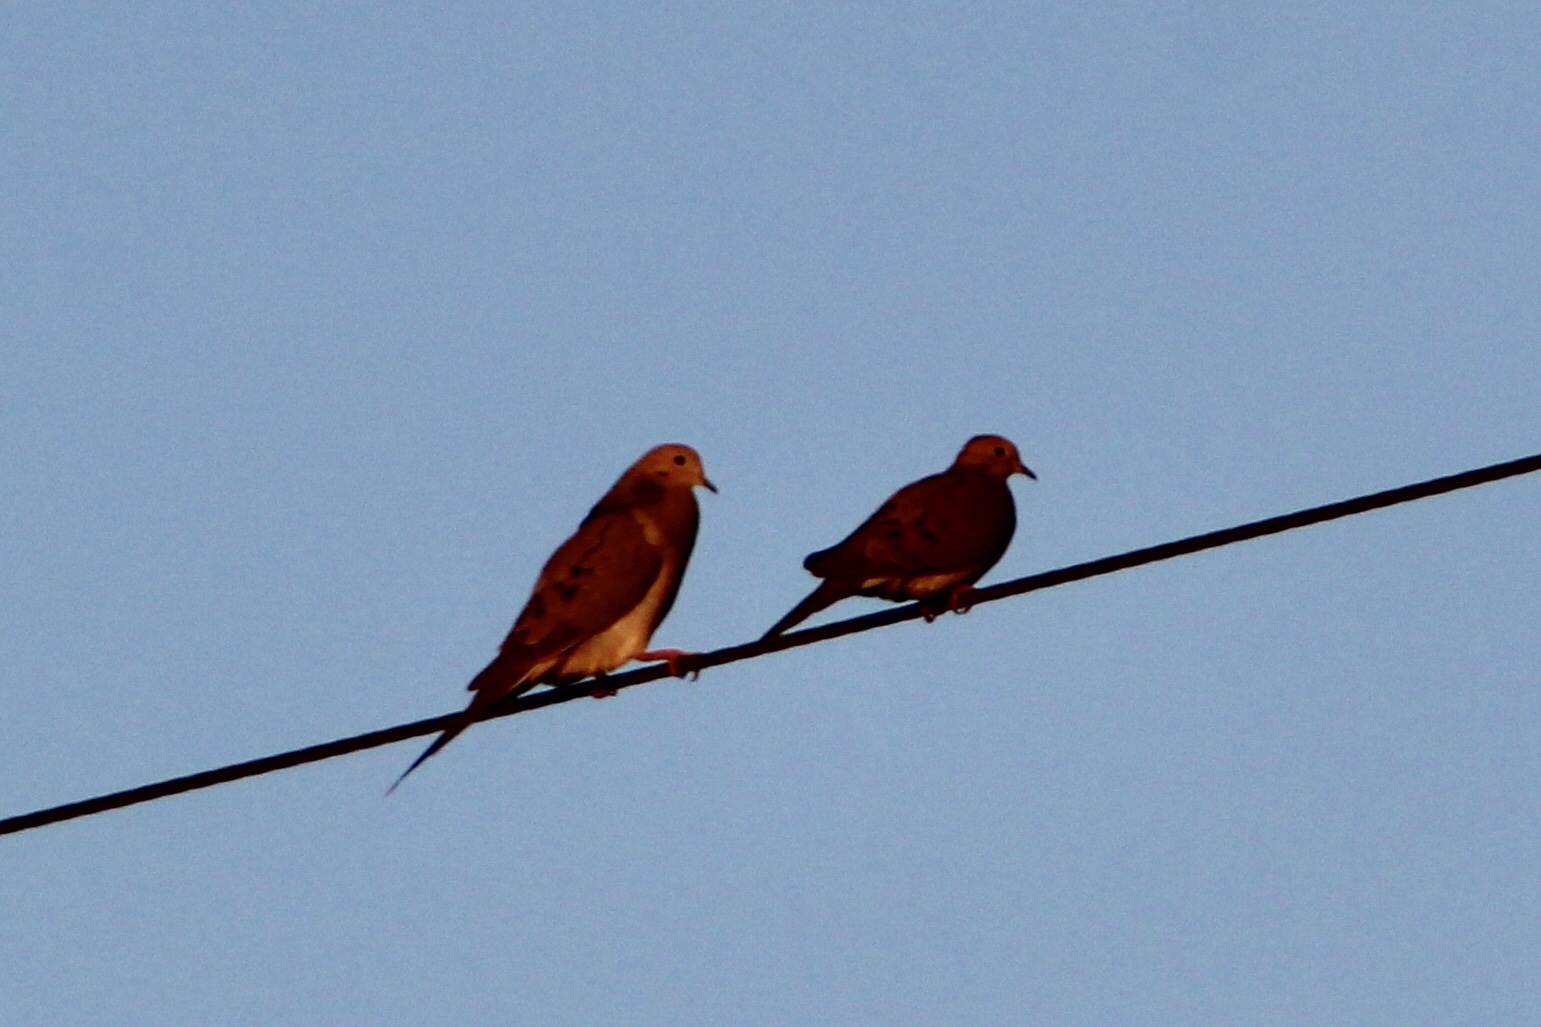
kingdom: Animalia
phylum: Chordata
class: Aves
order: Columbiformes
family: Columbidae
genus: Zenaida
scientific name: Zenaida macroura
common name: Mourning dove
